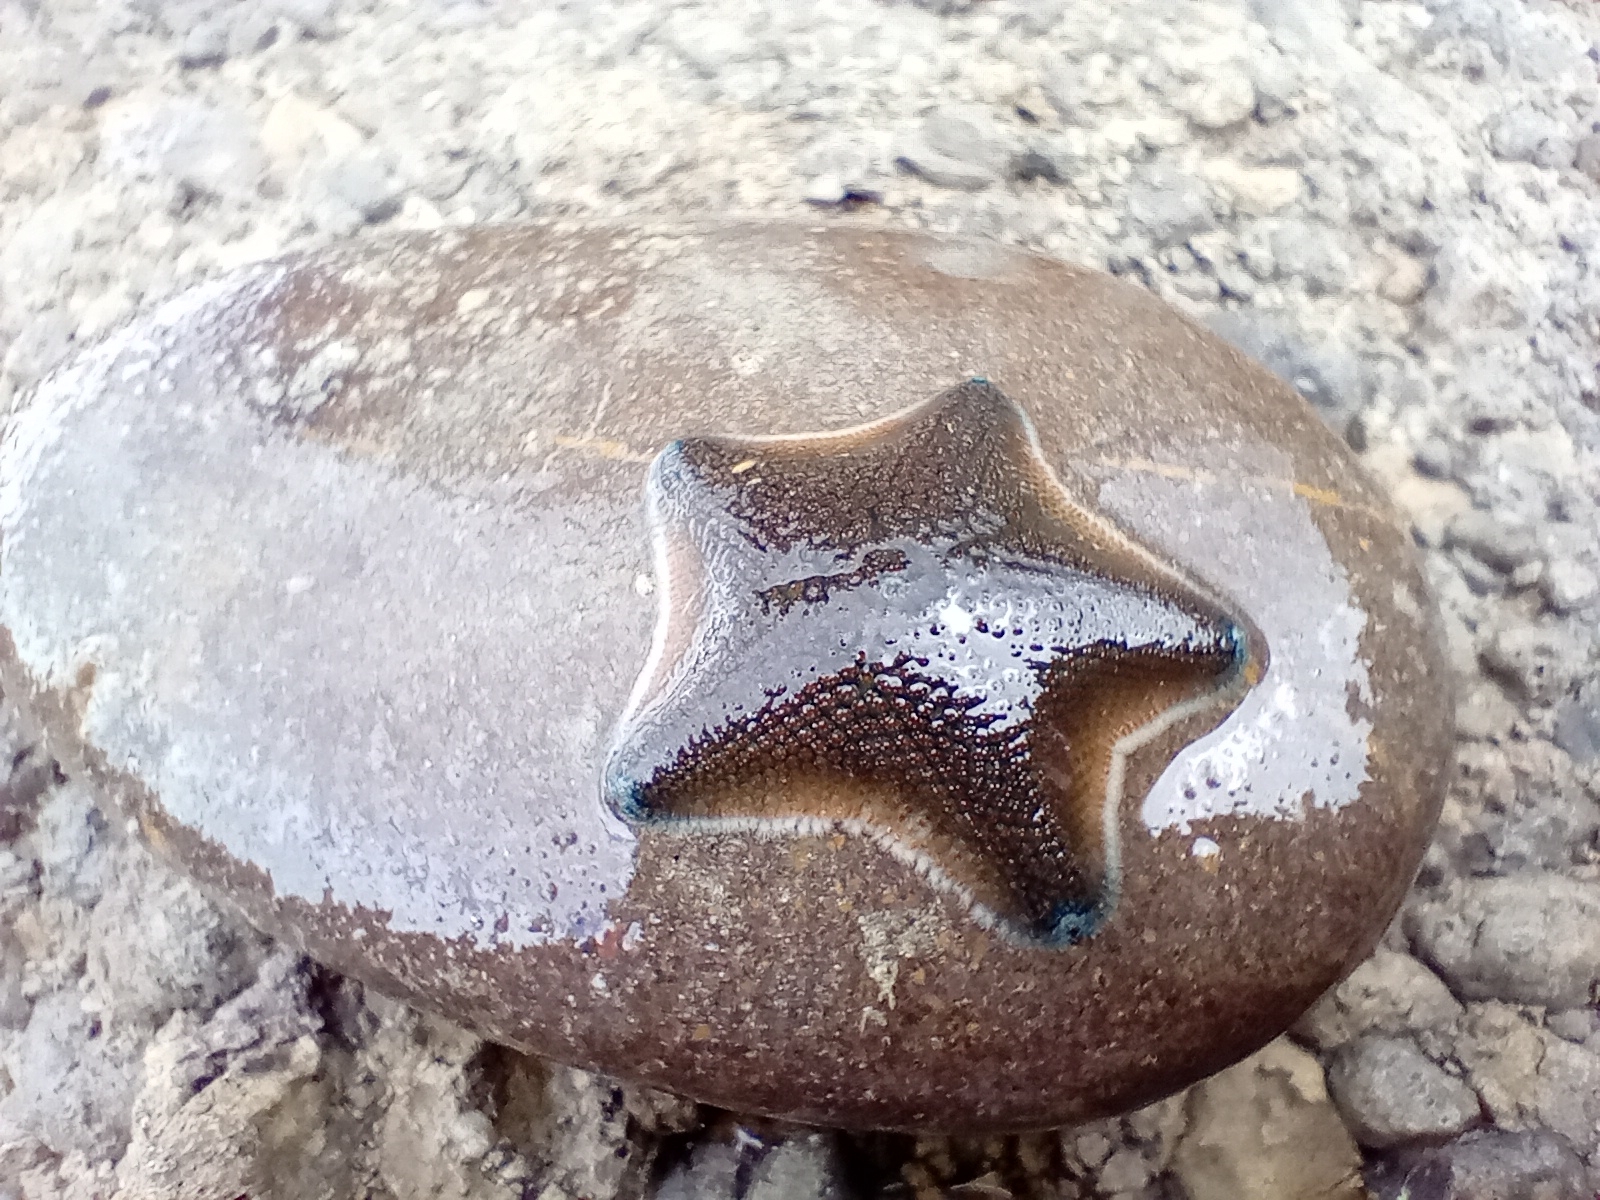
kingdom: Animalia
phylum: Echinodermata
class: Asteroidea
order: Valvatida
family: Asterinidae
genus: Patiriella
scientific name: Patiriella regularis
